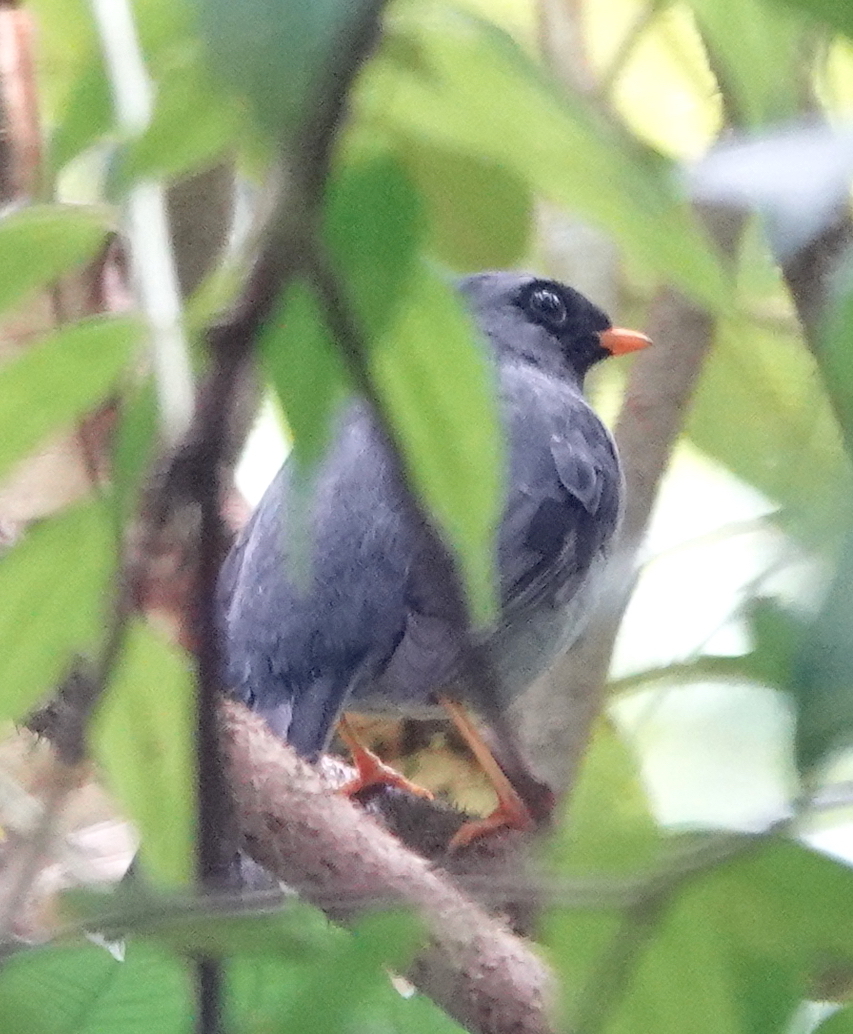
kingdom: Animalia
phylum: Chordata
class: Aves
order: Passeriformes
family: Turdidae
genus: Myadestes
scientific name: Myadestes melanops
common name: Black-faced solitaire
